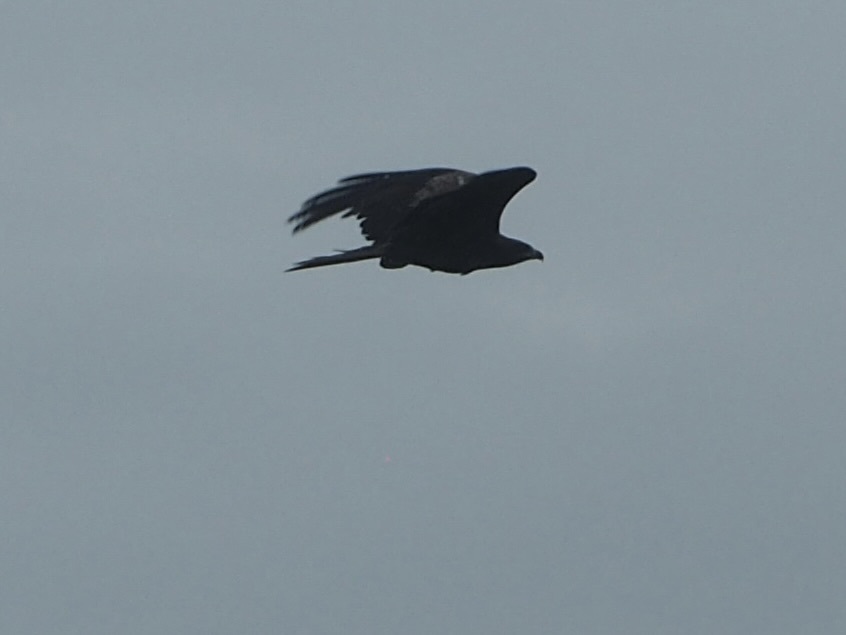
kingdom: Animalia
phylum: Chordata
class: Aves
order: Accipitriformes
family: Accipitridae
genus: Milvus
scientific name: Milvus migrans
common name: Black kite
